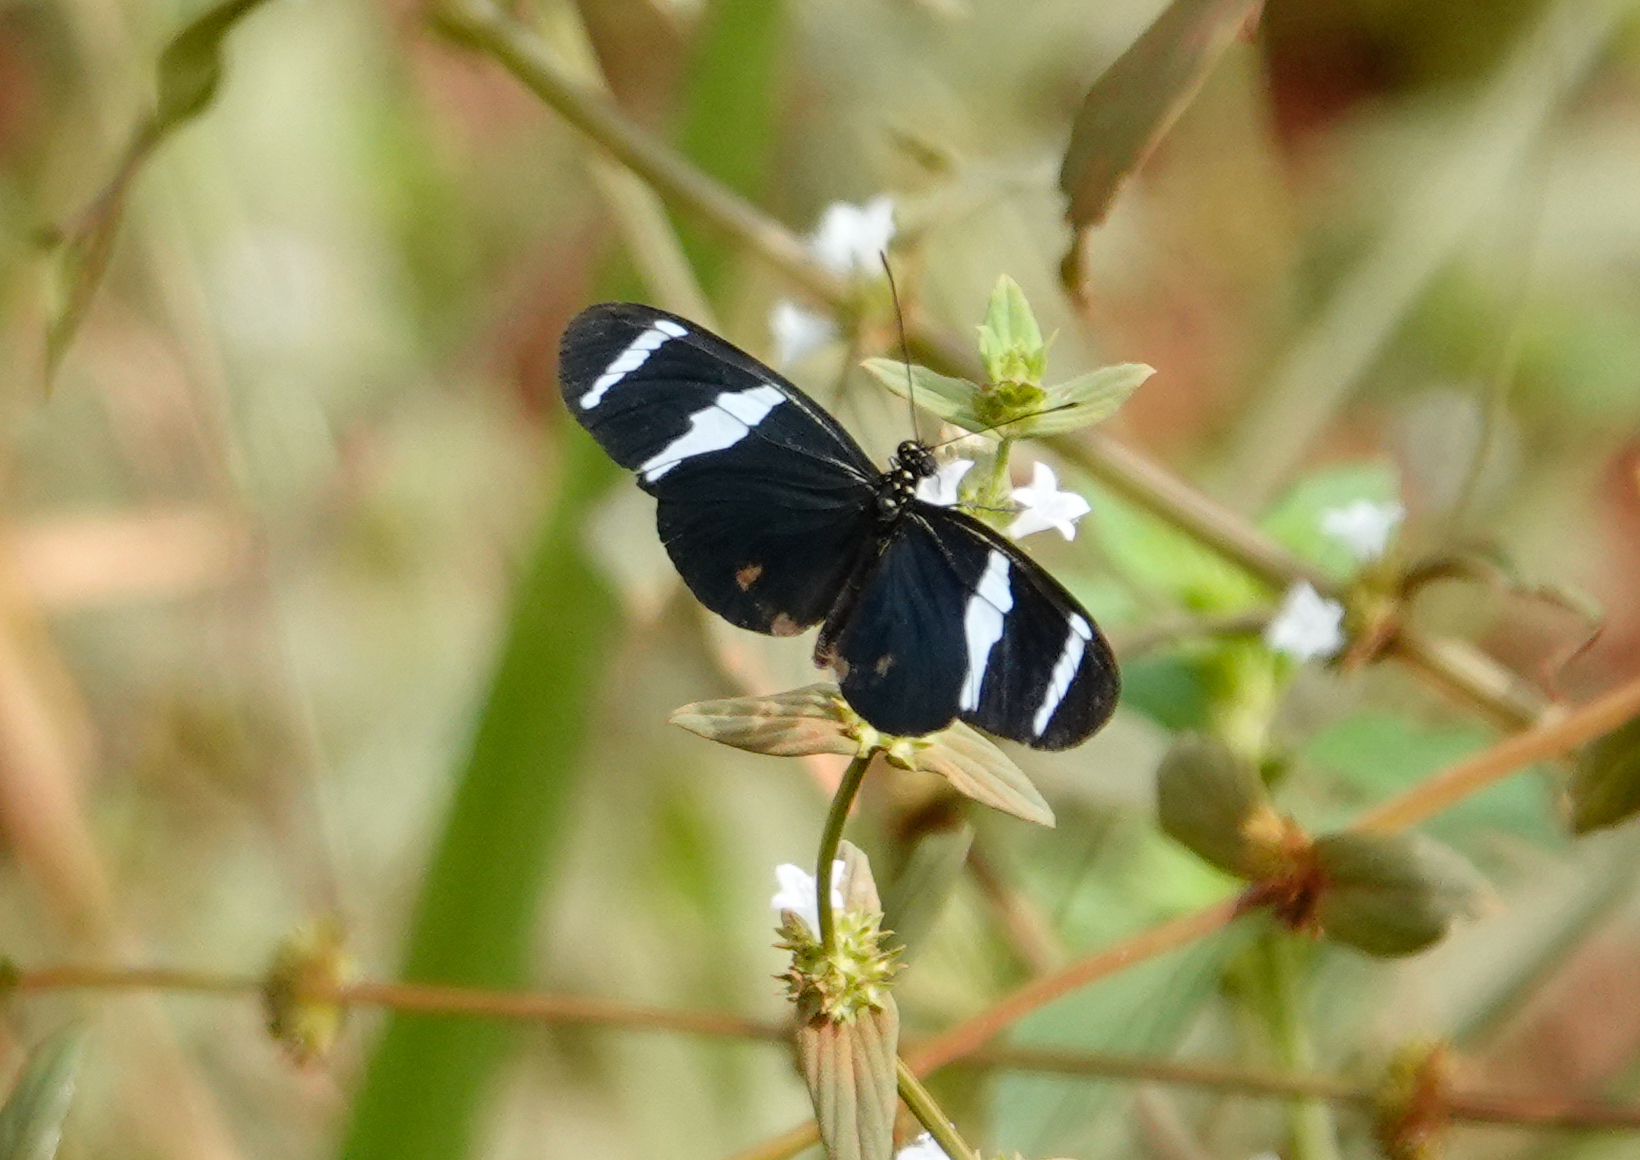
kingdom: Animalia
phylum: Arthropoda
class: Insecta
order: Lepidoptera
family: Nymphalidae
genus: Heliconius
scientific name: Heliconius antiochus
